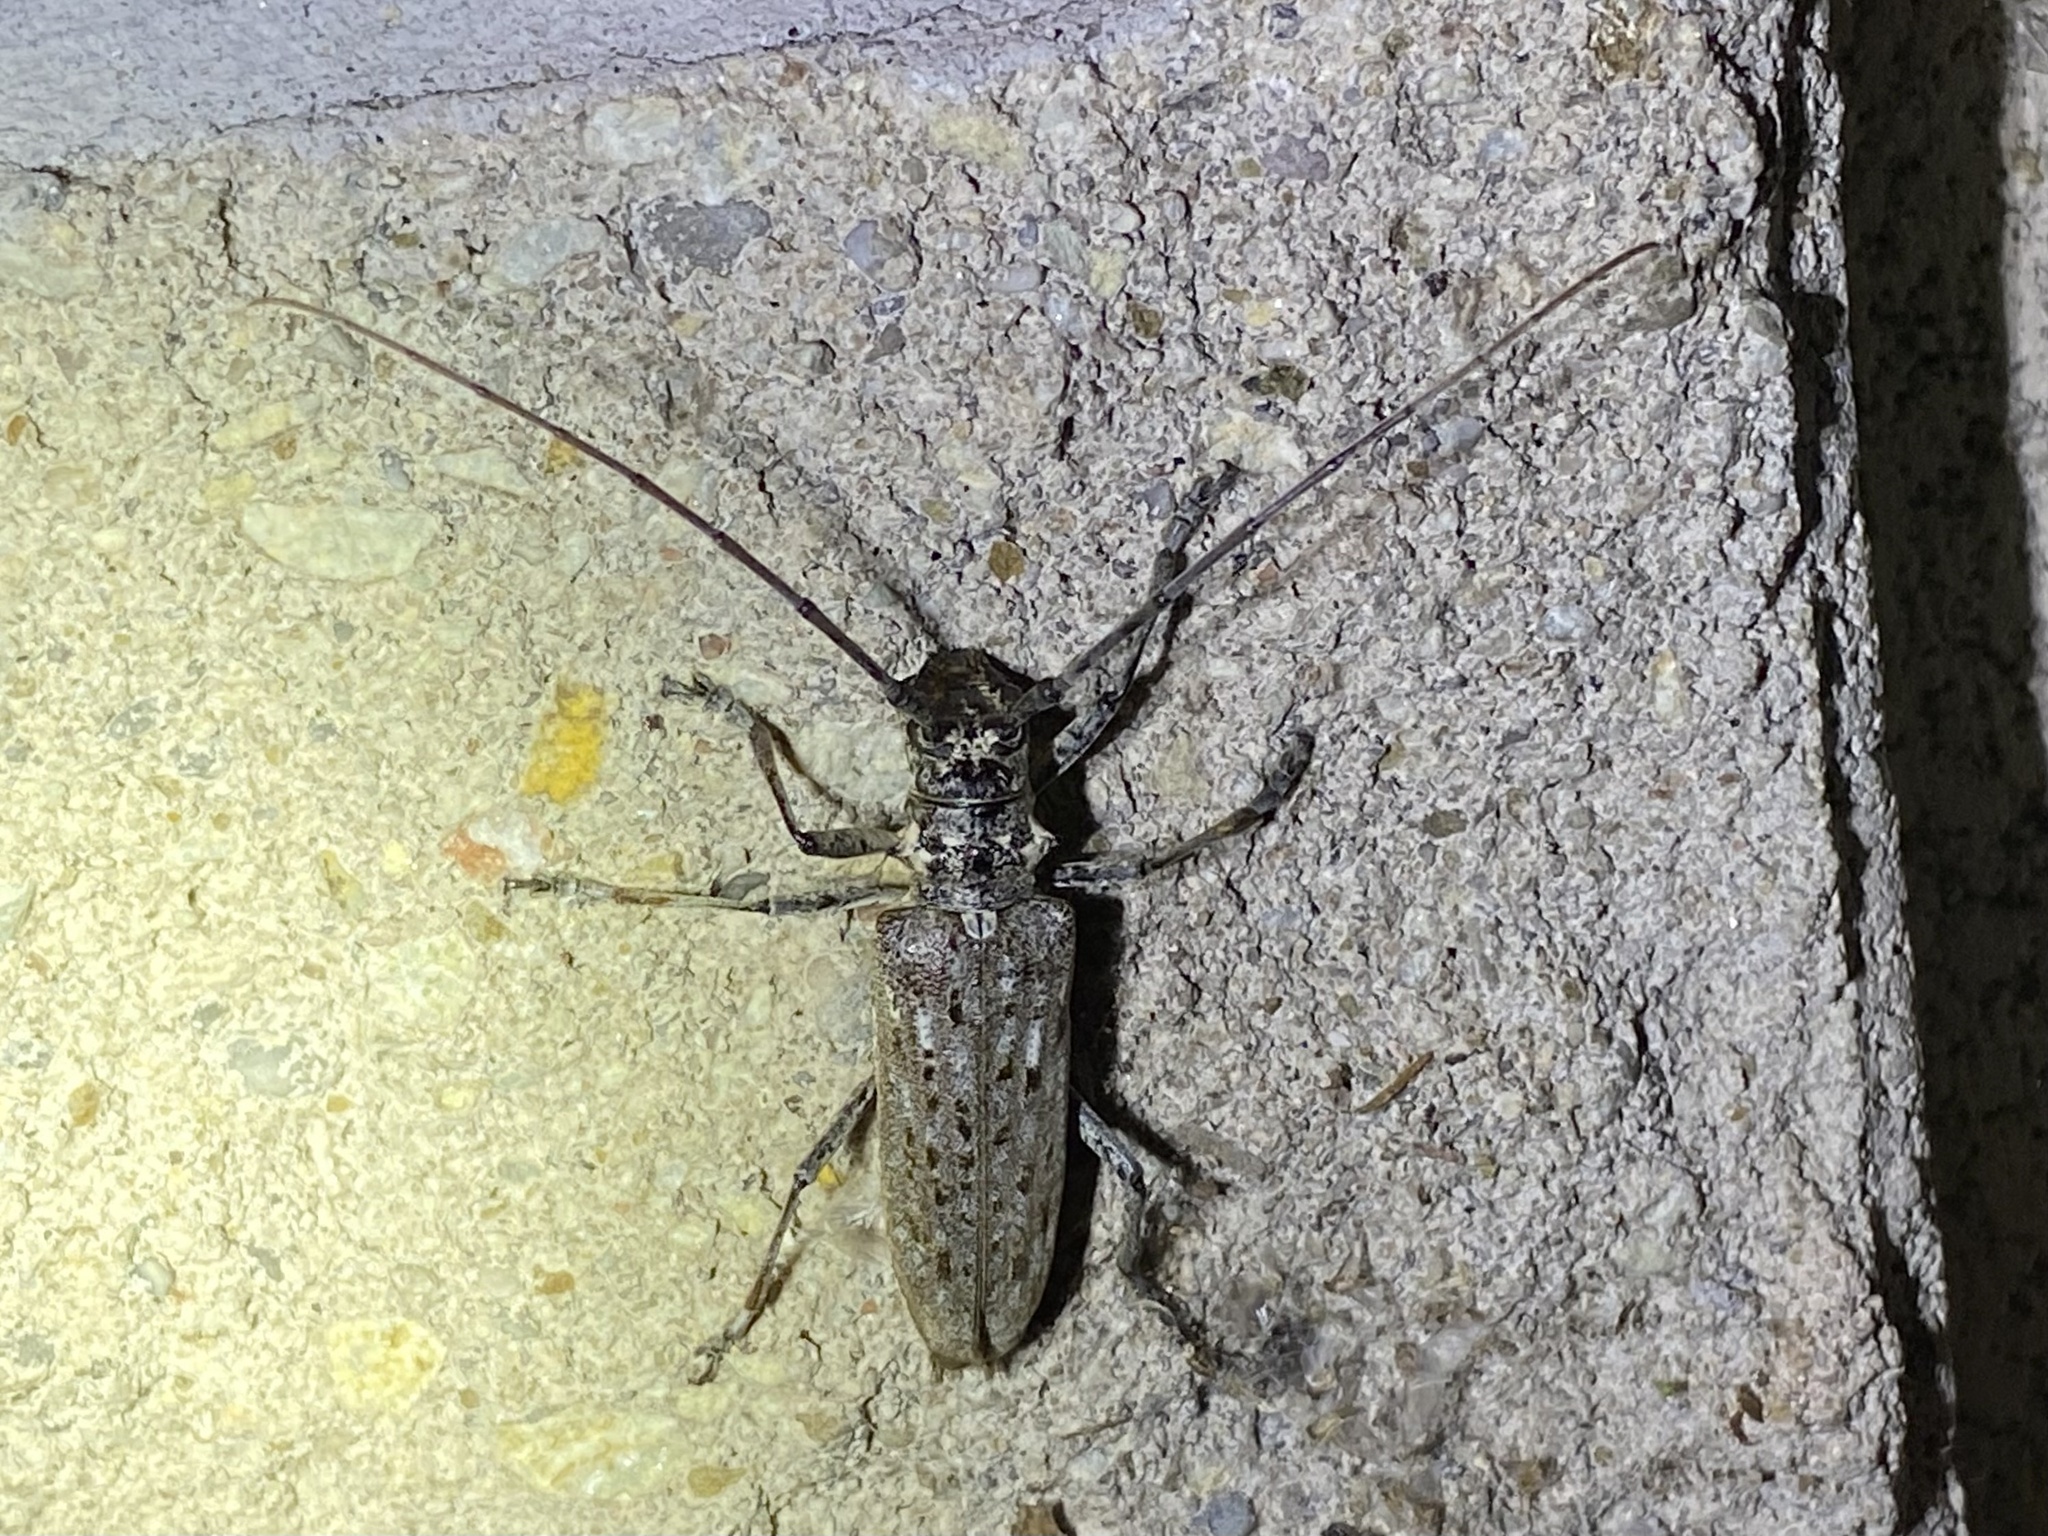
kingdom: Animalia
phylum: Arthropoda
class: Insecta
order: Coleoptera
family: Cerambycidae
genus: Monochamus
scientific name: Monochamus notatus
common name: Northeastern pine sawyer beetle
